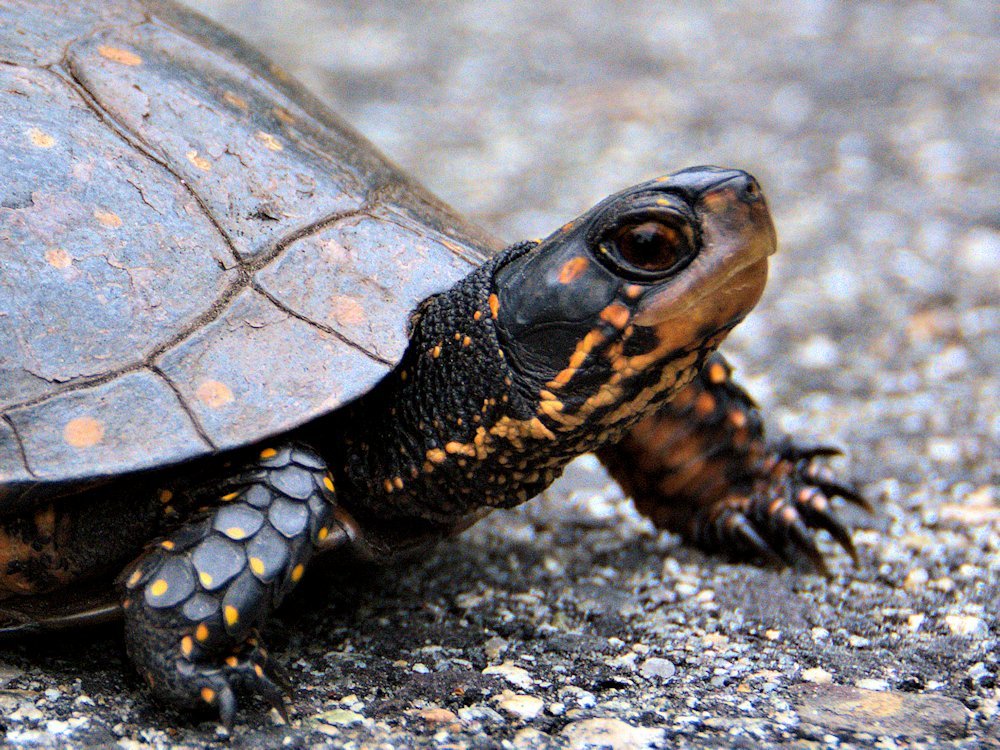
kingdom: Animalia
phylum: Chordata
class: Testudines
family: Emydidae
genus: Clemmys
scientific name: Clemmys guttata
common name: Spotted turtle
